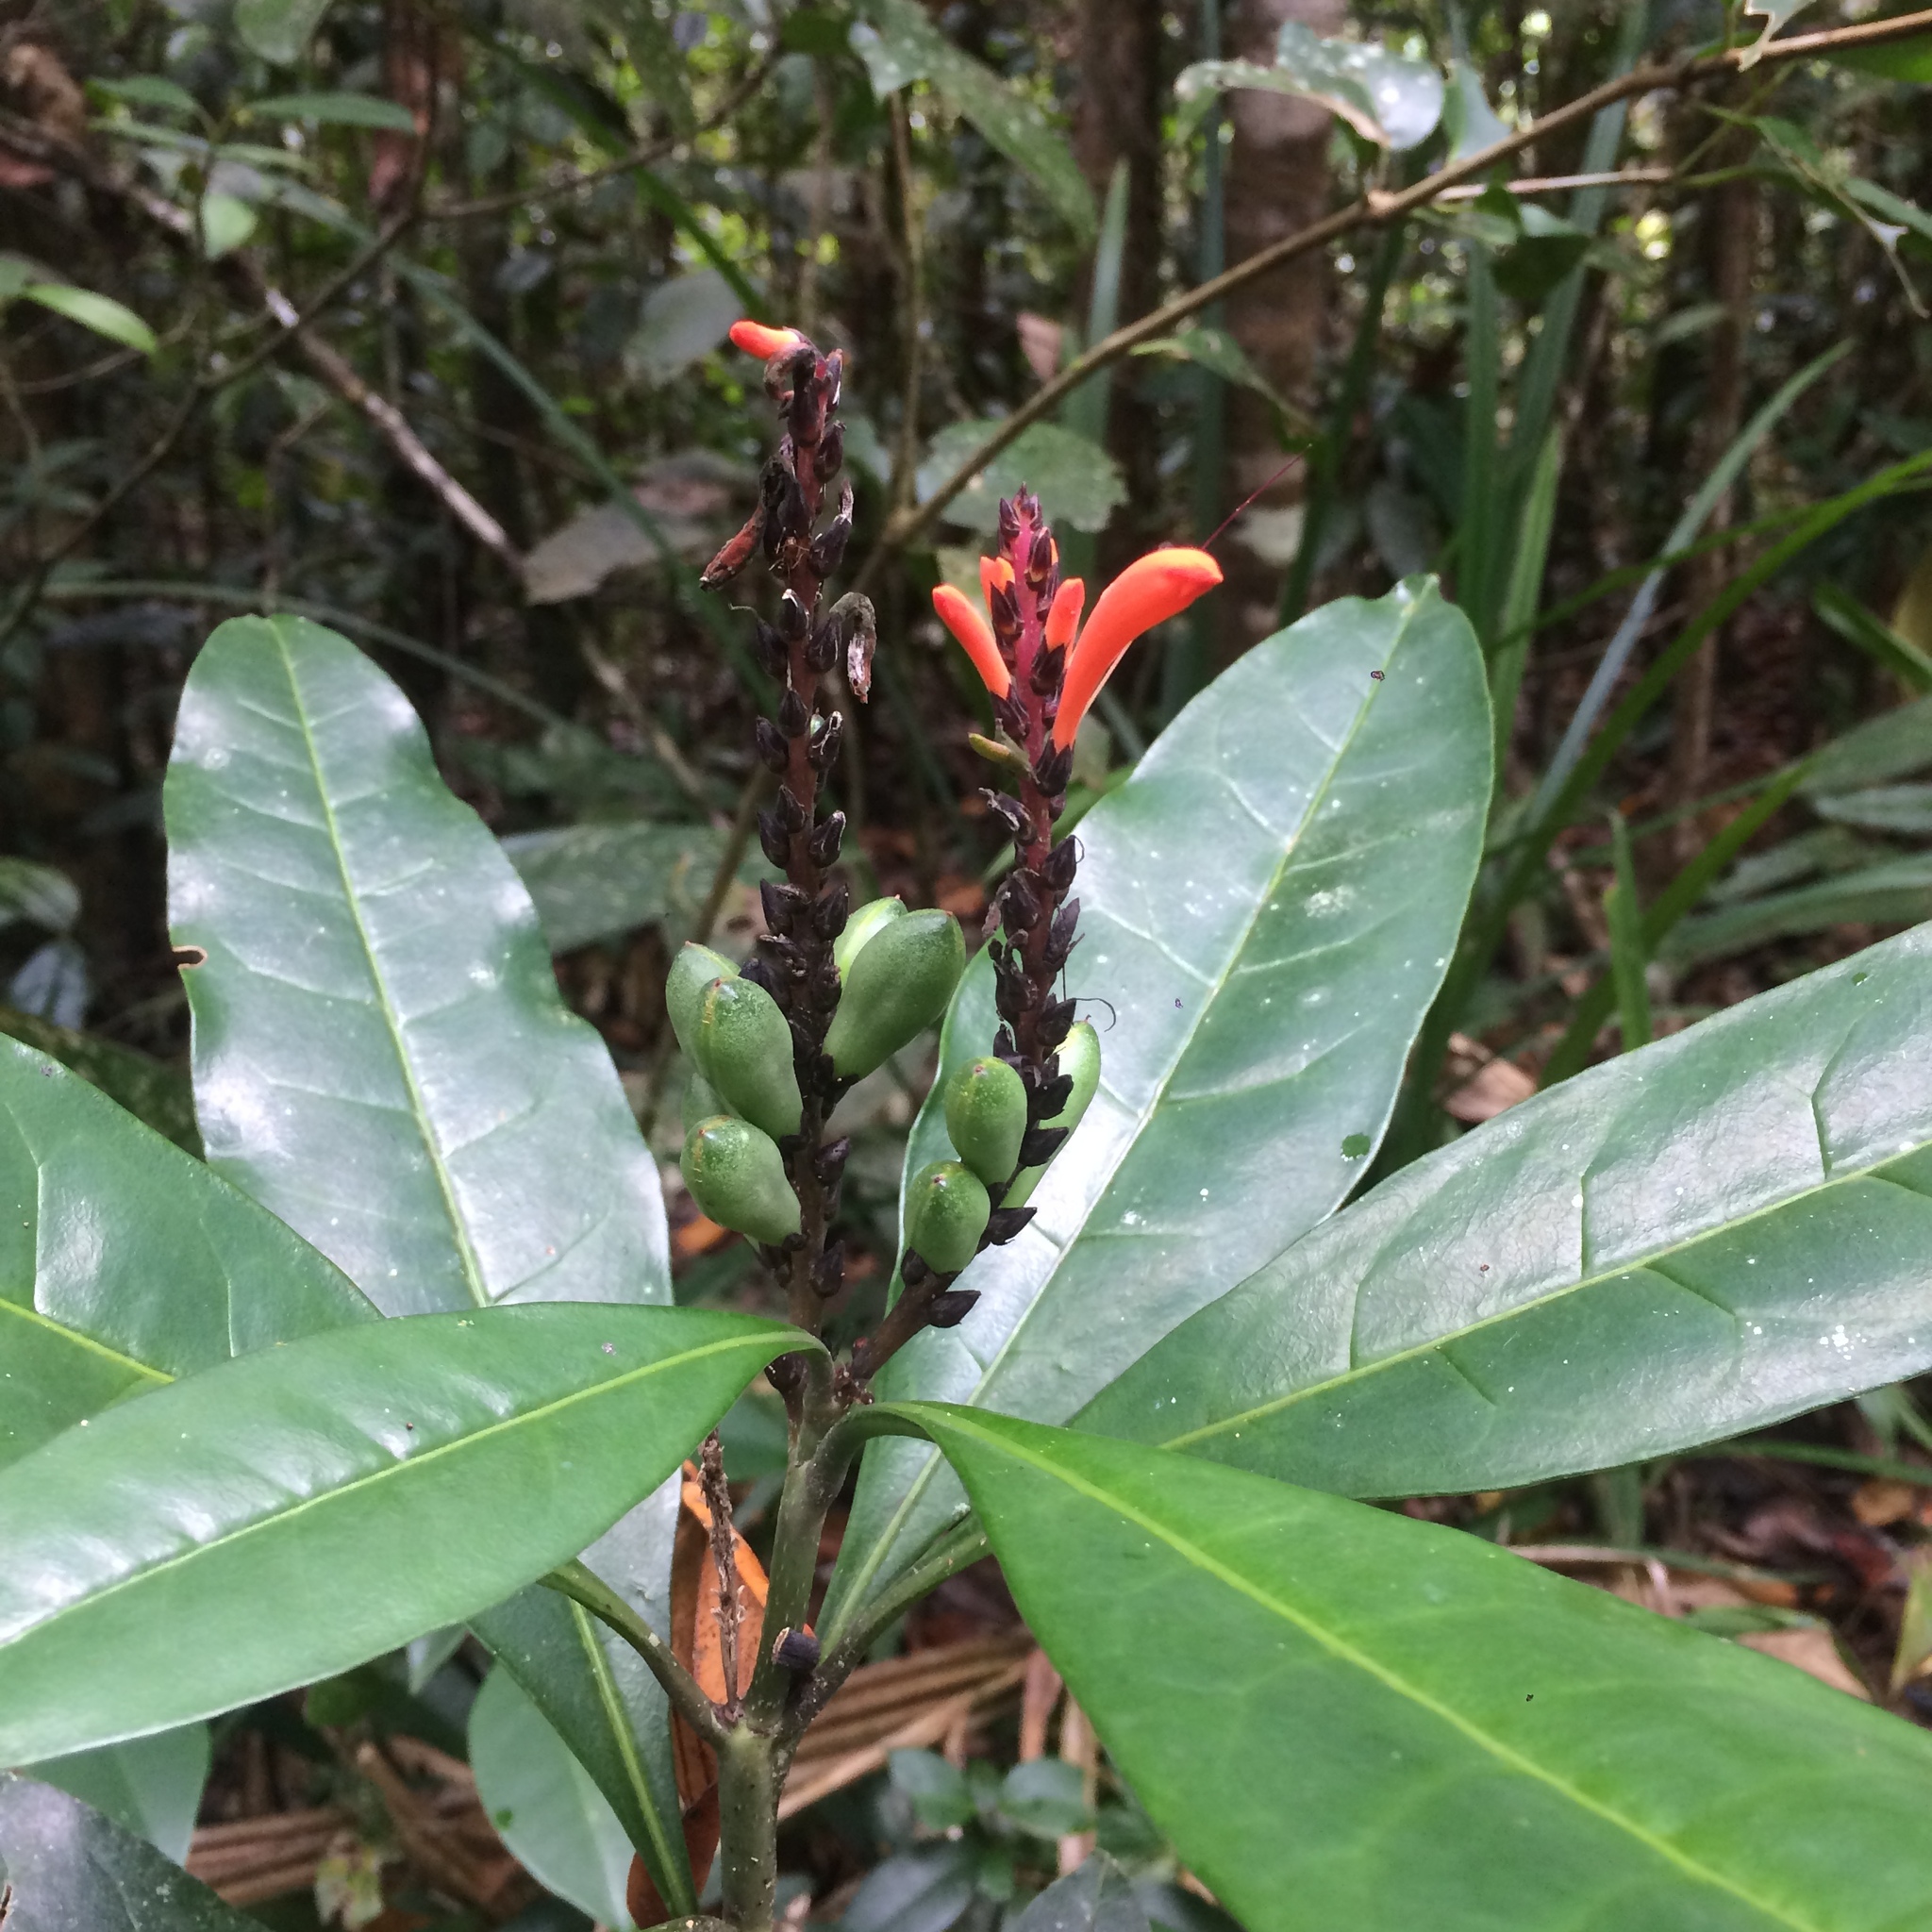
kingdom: Plantae
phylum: Tracheophyta
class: Magnoliopsida
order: Lamiales
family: Acanthaceae
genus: Aphelandra
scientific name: Aphelandra nitida
